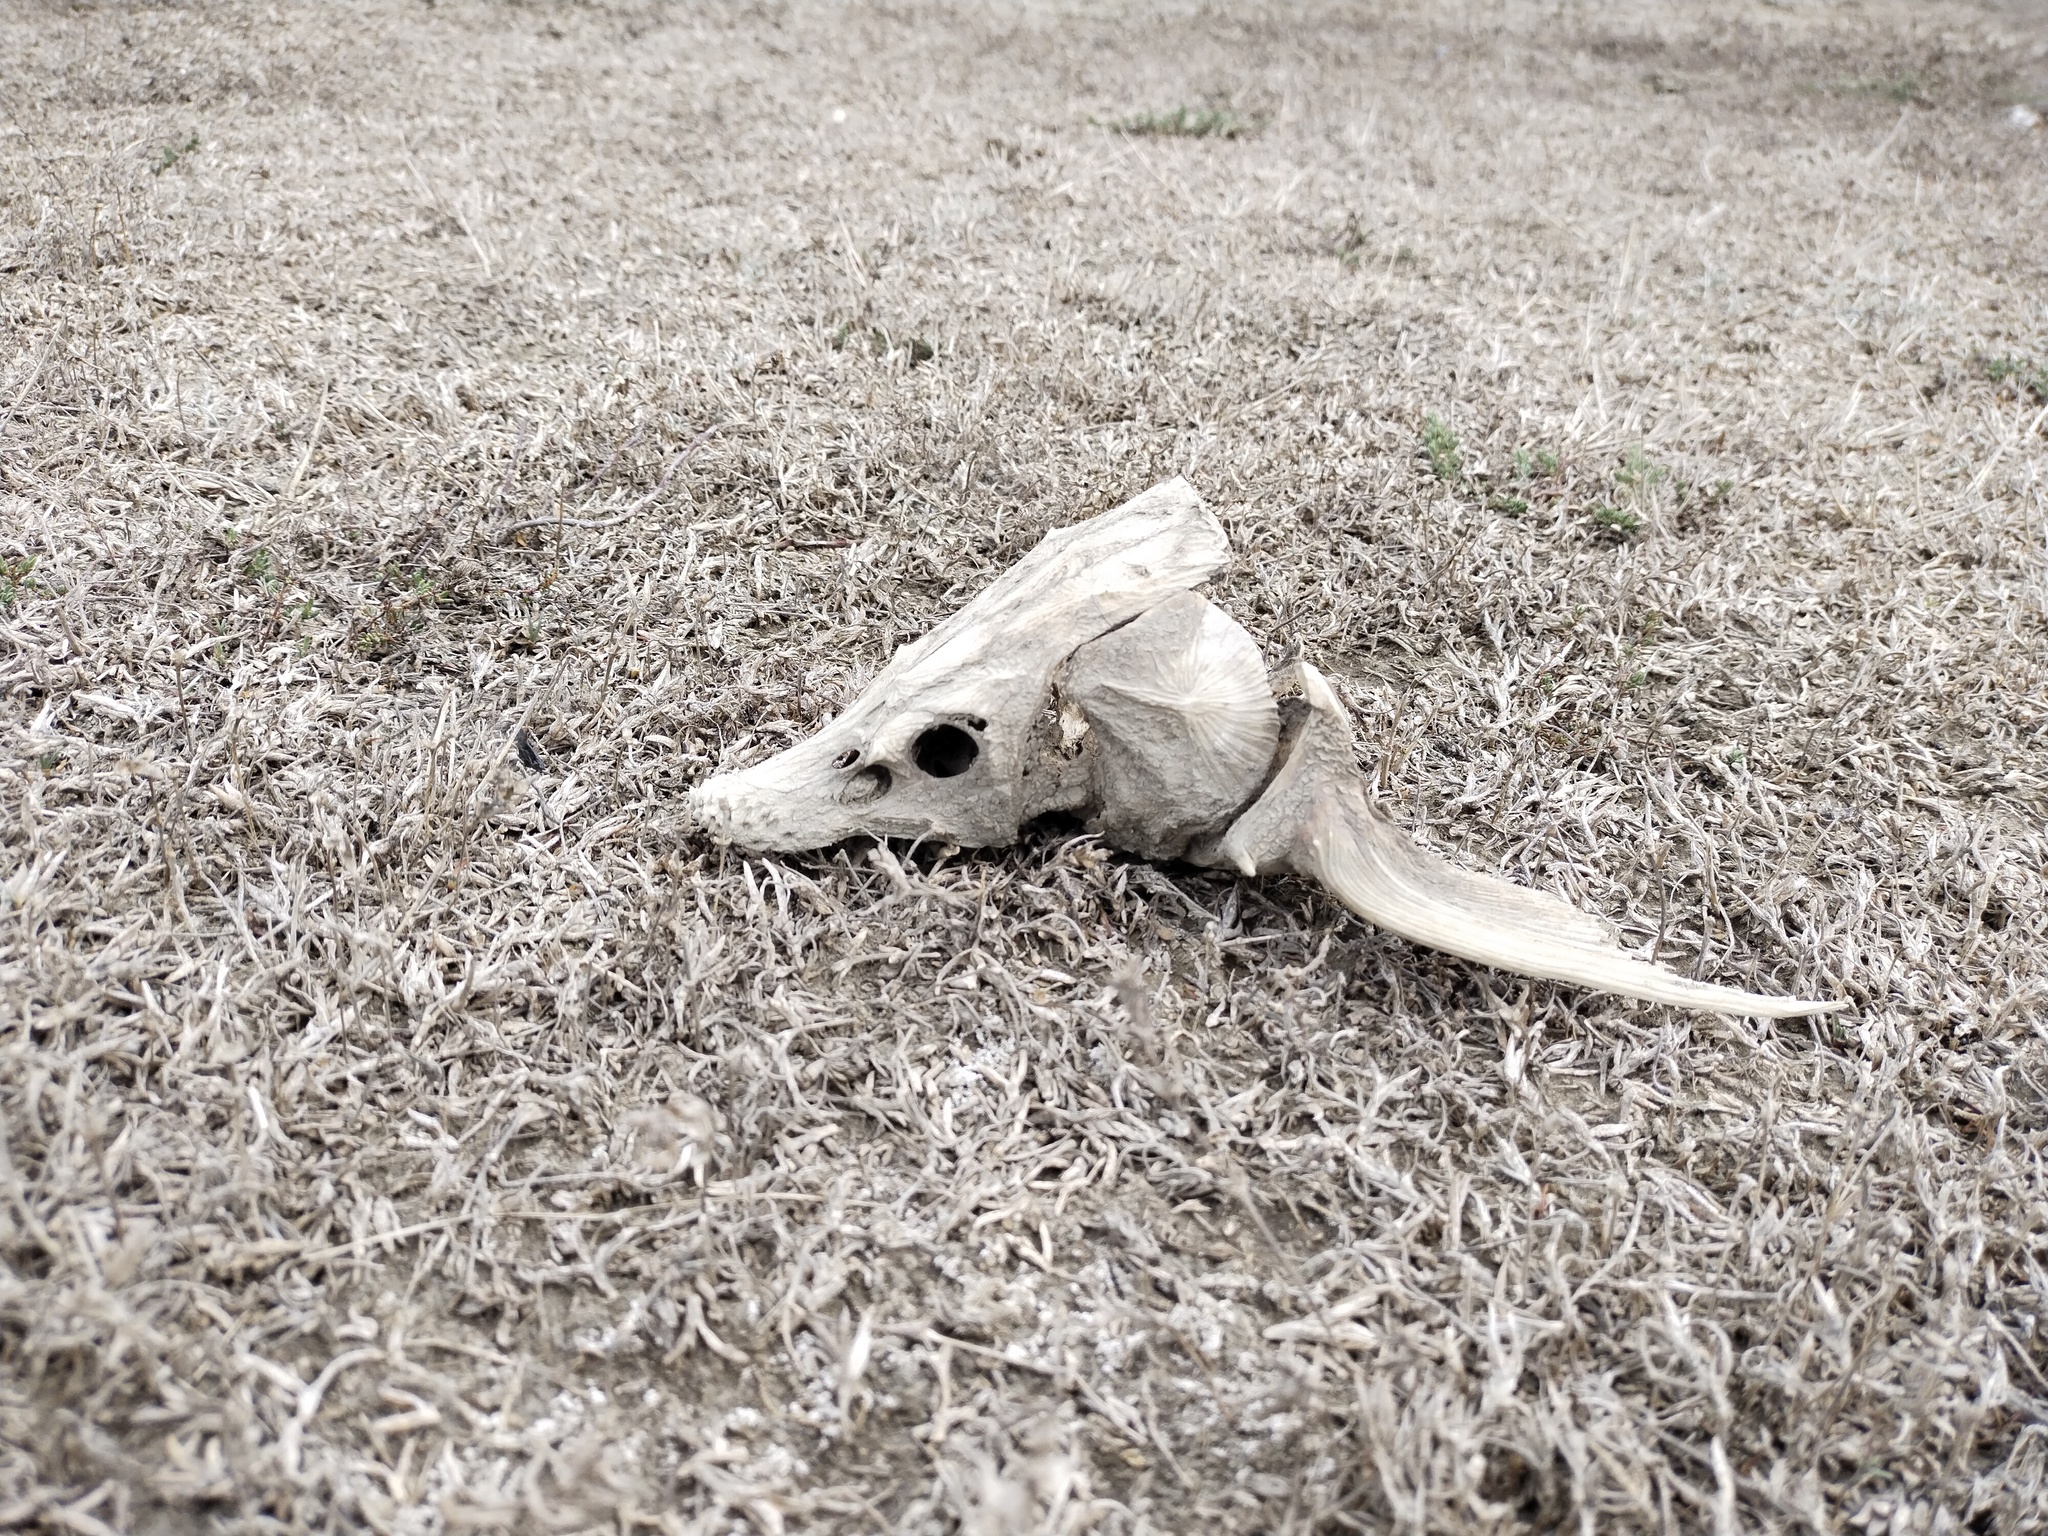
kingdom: Animalia
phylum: Chordata
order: Acipenseriformes
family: Acipenseridae
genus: Acipenser
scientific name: Acipenser gueldenstaedtii
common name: Russian sturgeon
